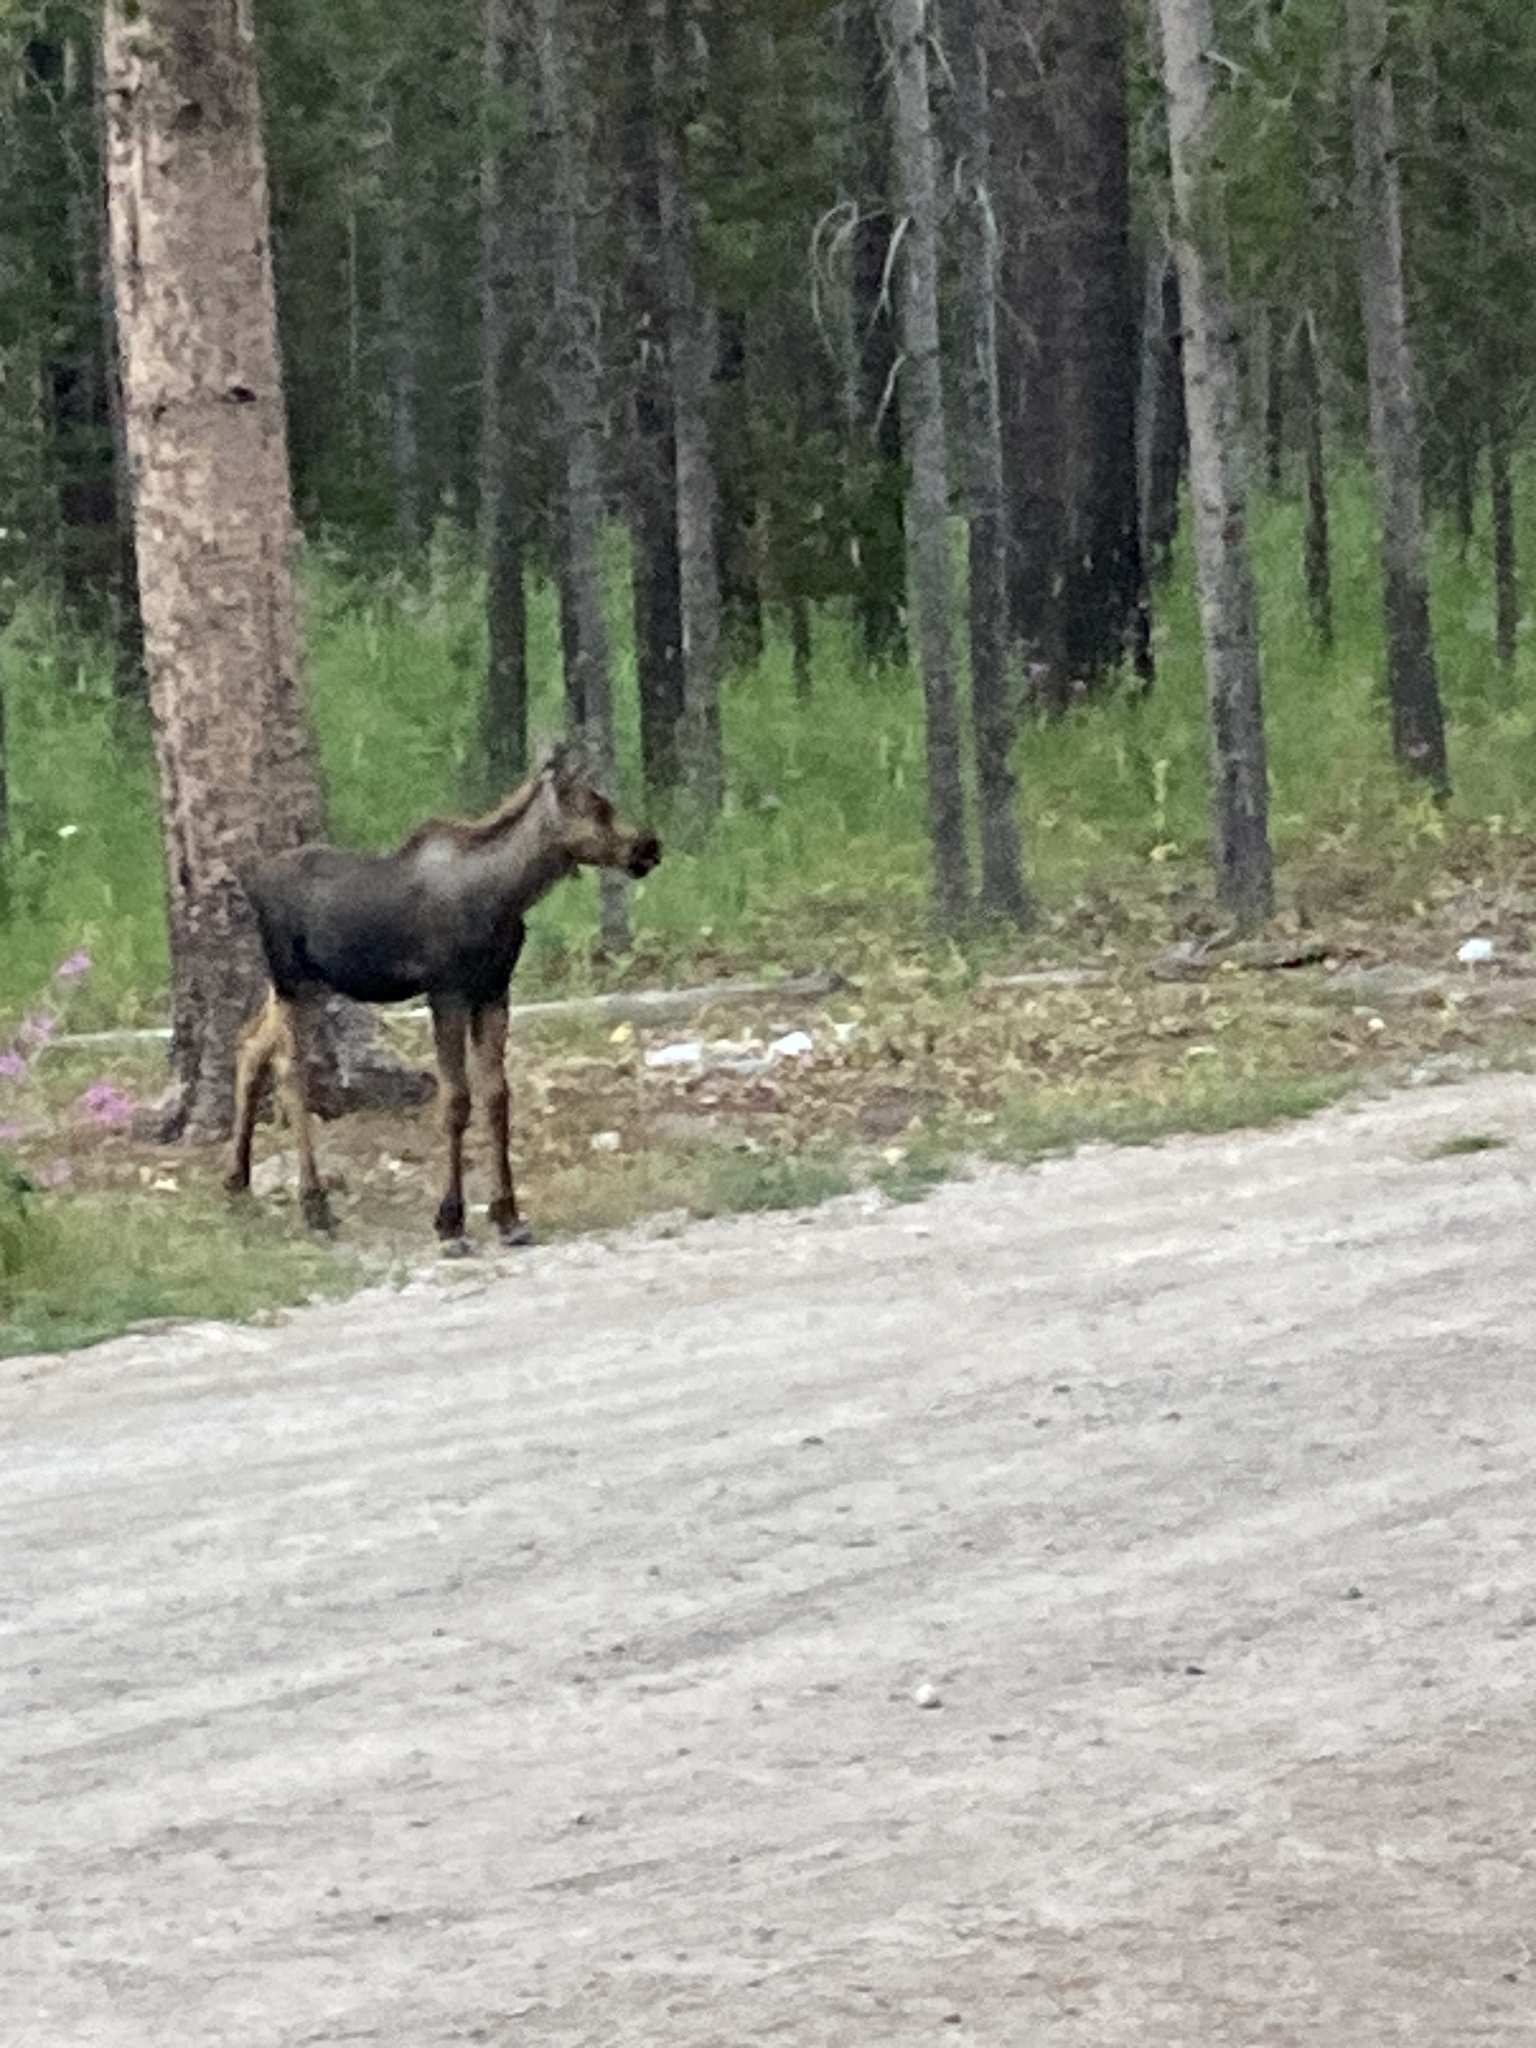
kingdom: Animalia
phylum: Chordata
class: Mammalia
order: Artiodactyla
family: Cervidae
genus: Alces
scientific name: Alces alces
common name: Moose
